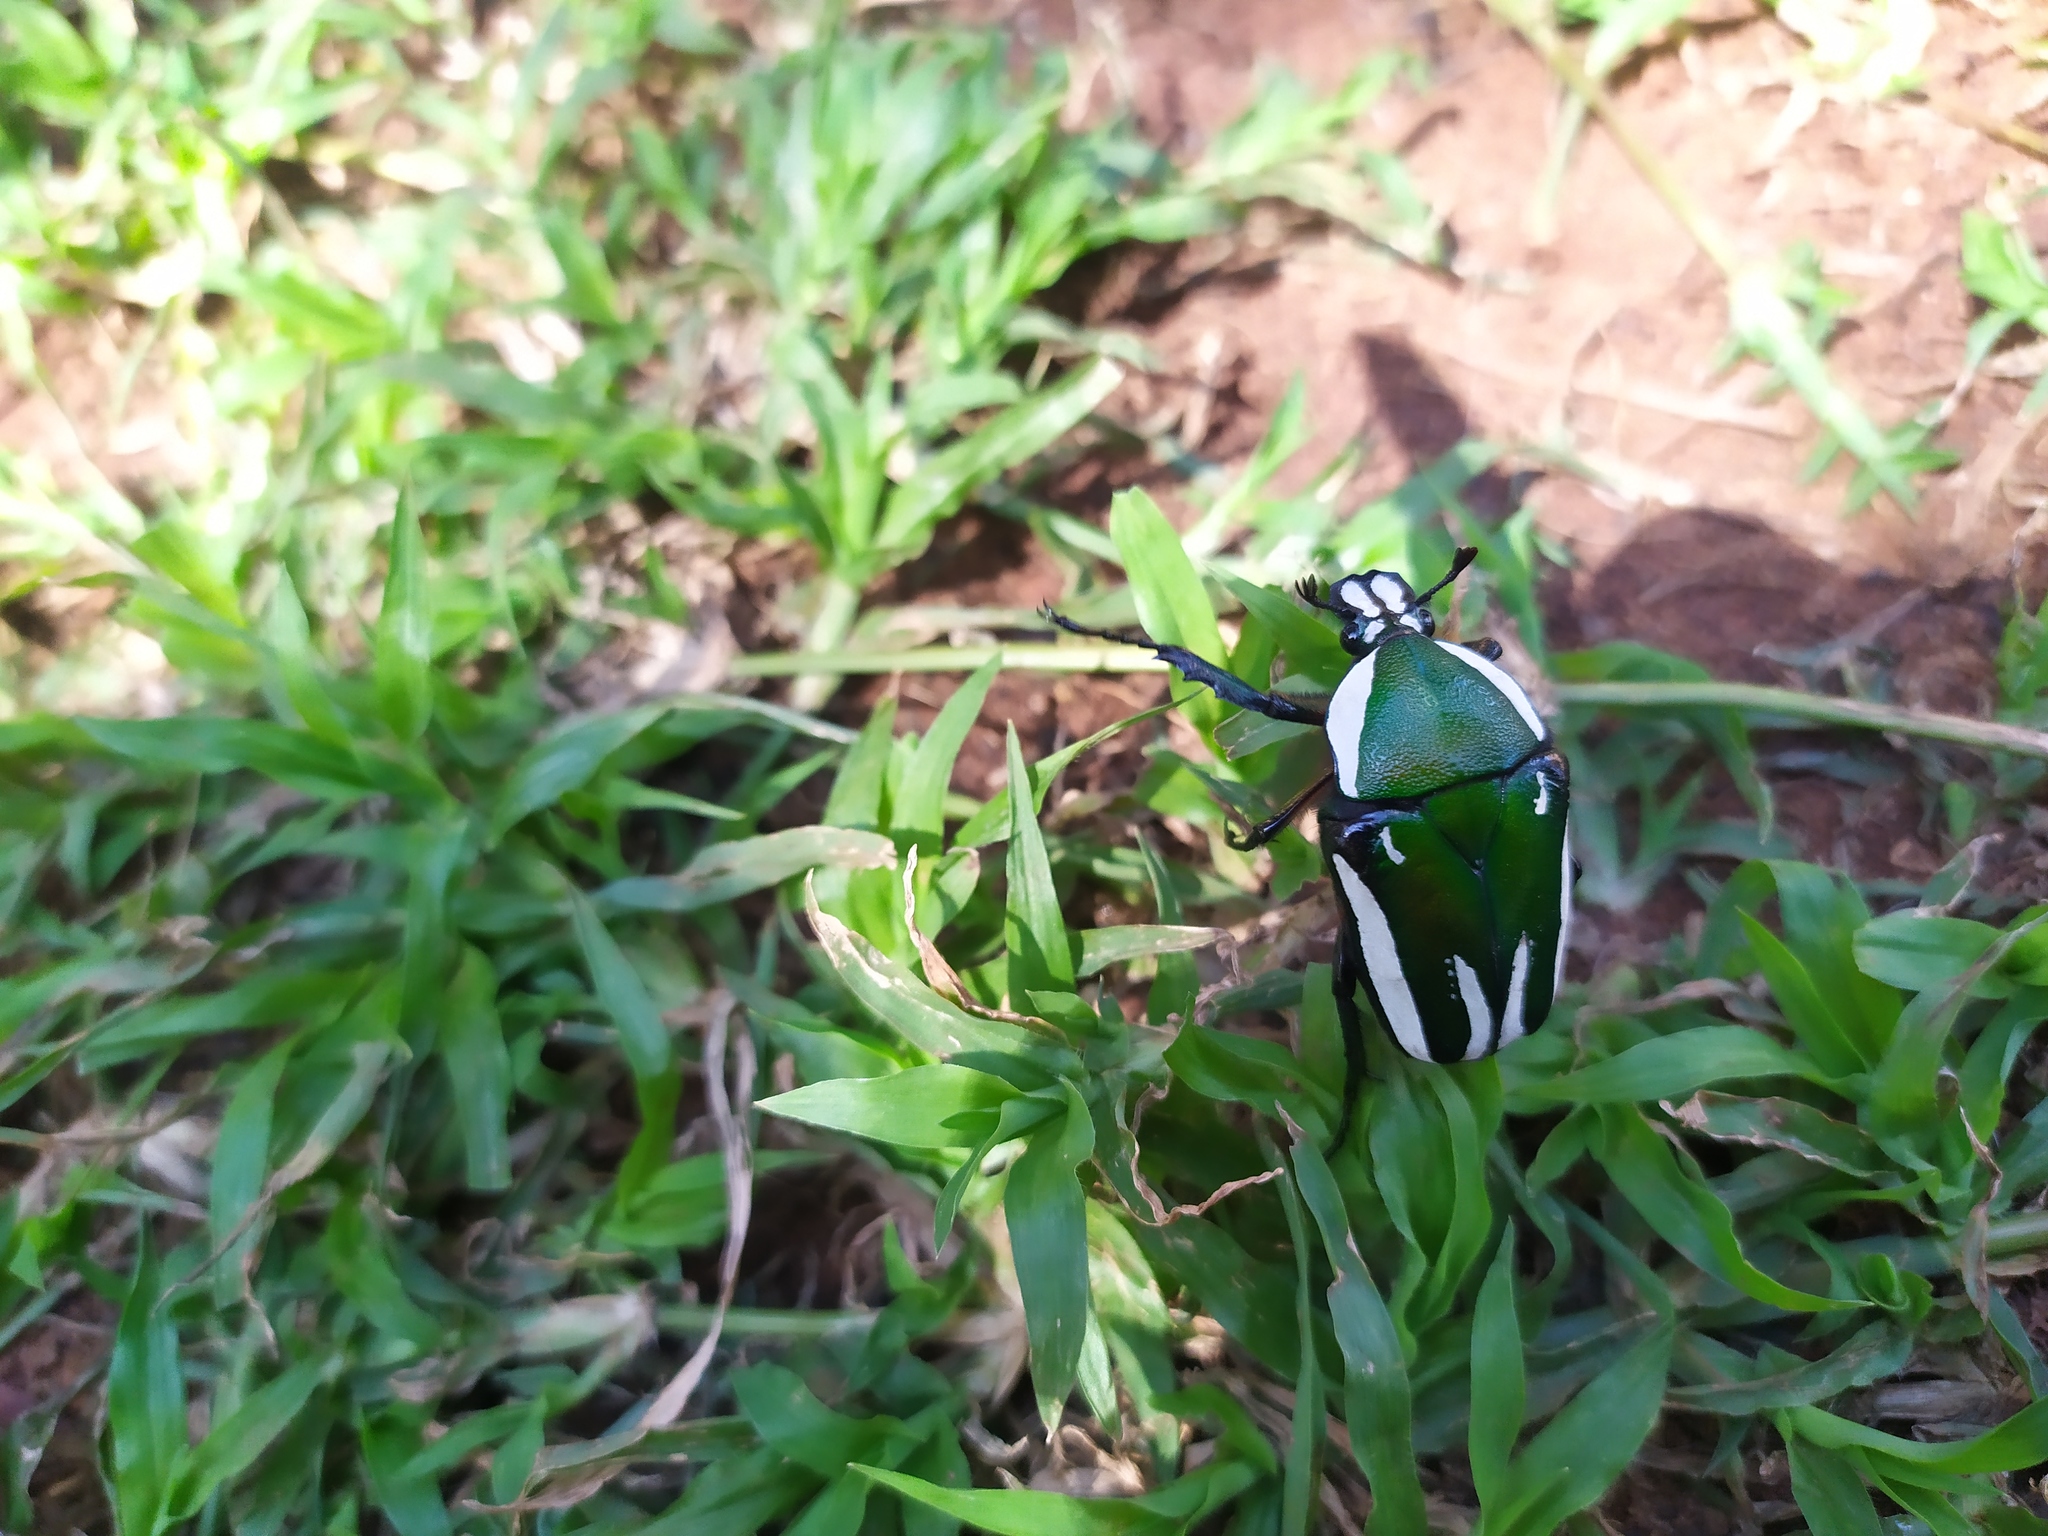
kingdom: Animalia
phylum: Arthropoda
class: Insecta
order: Coleoptera
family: Scarabaeidae
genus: Dicronorhina
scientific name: Dicronorhina derbyana
